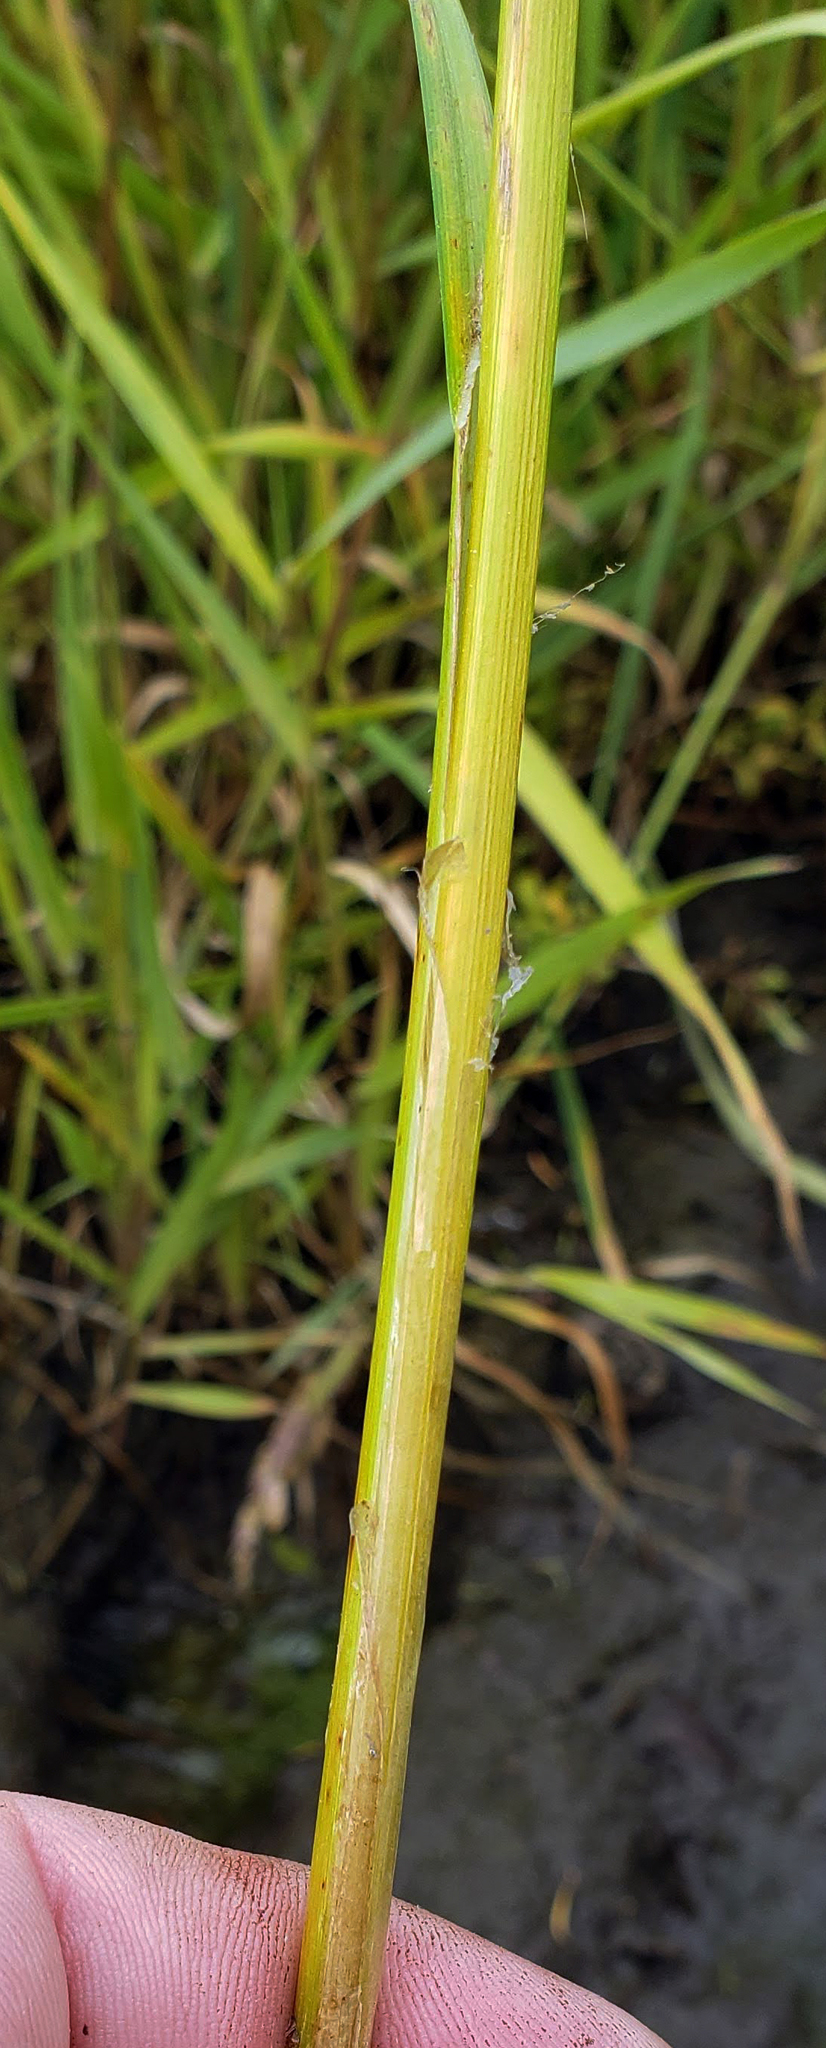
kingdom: Plantae
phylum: Tracheophyta
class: Liliopsida
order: Poales
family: Cyperaceae
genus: Carex
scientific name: Carex utriculata
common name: Beaked sedge
